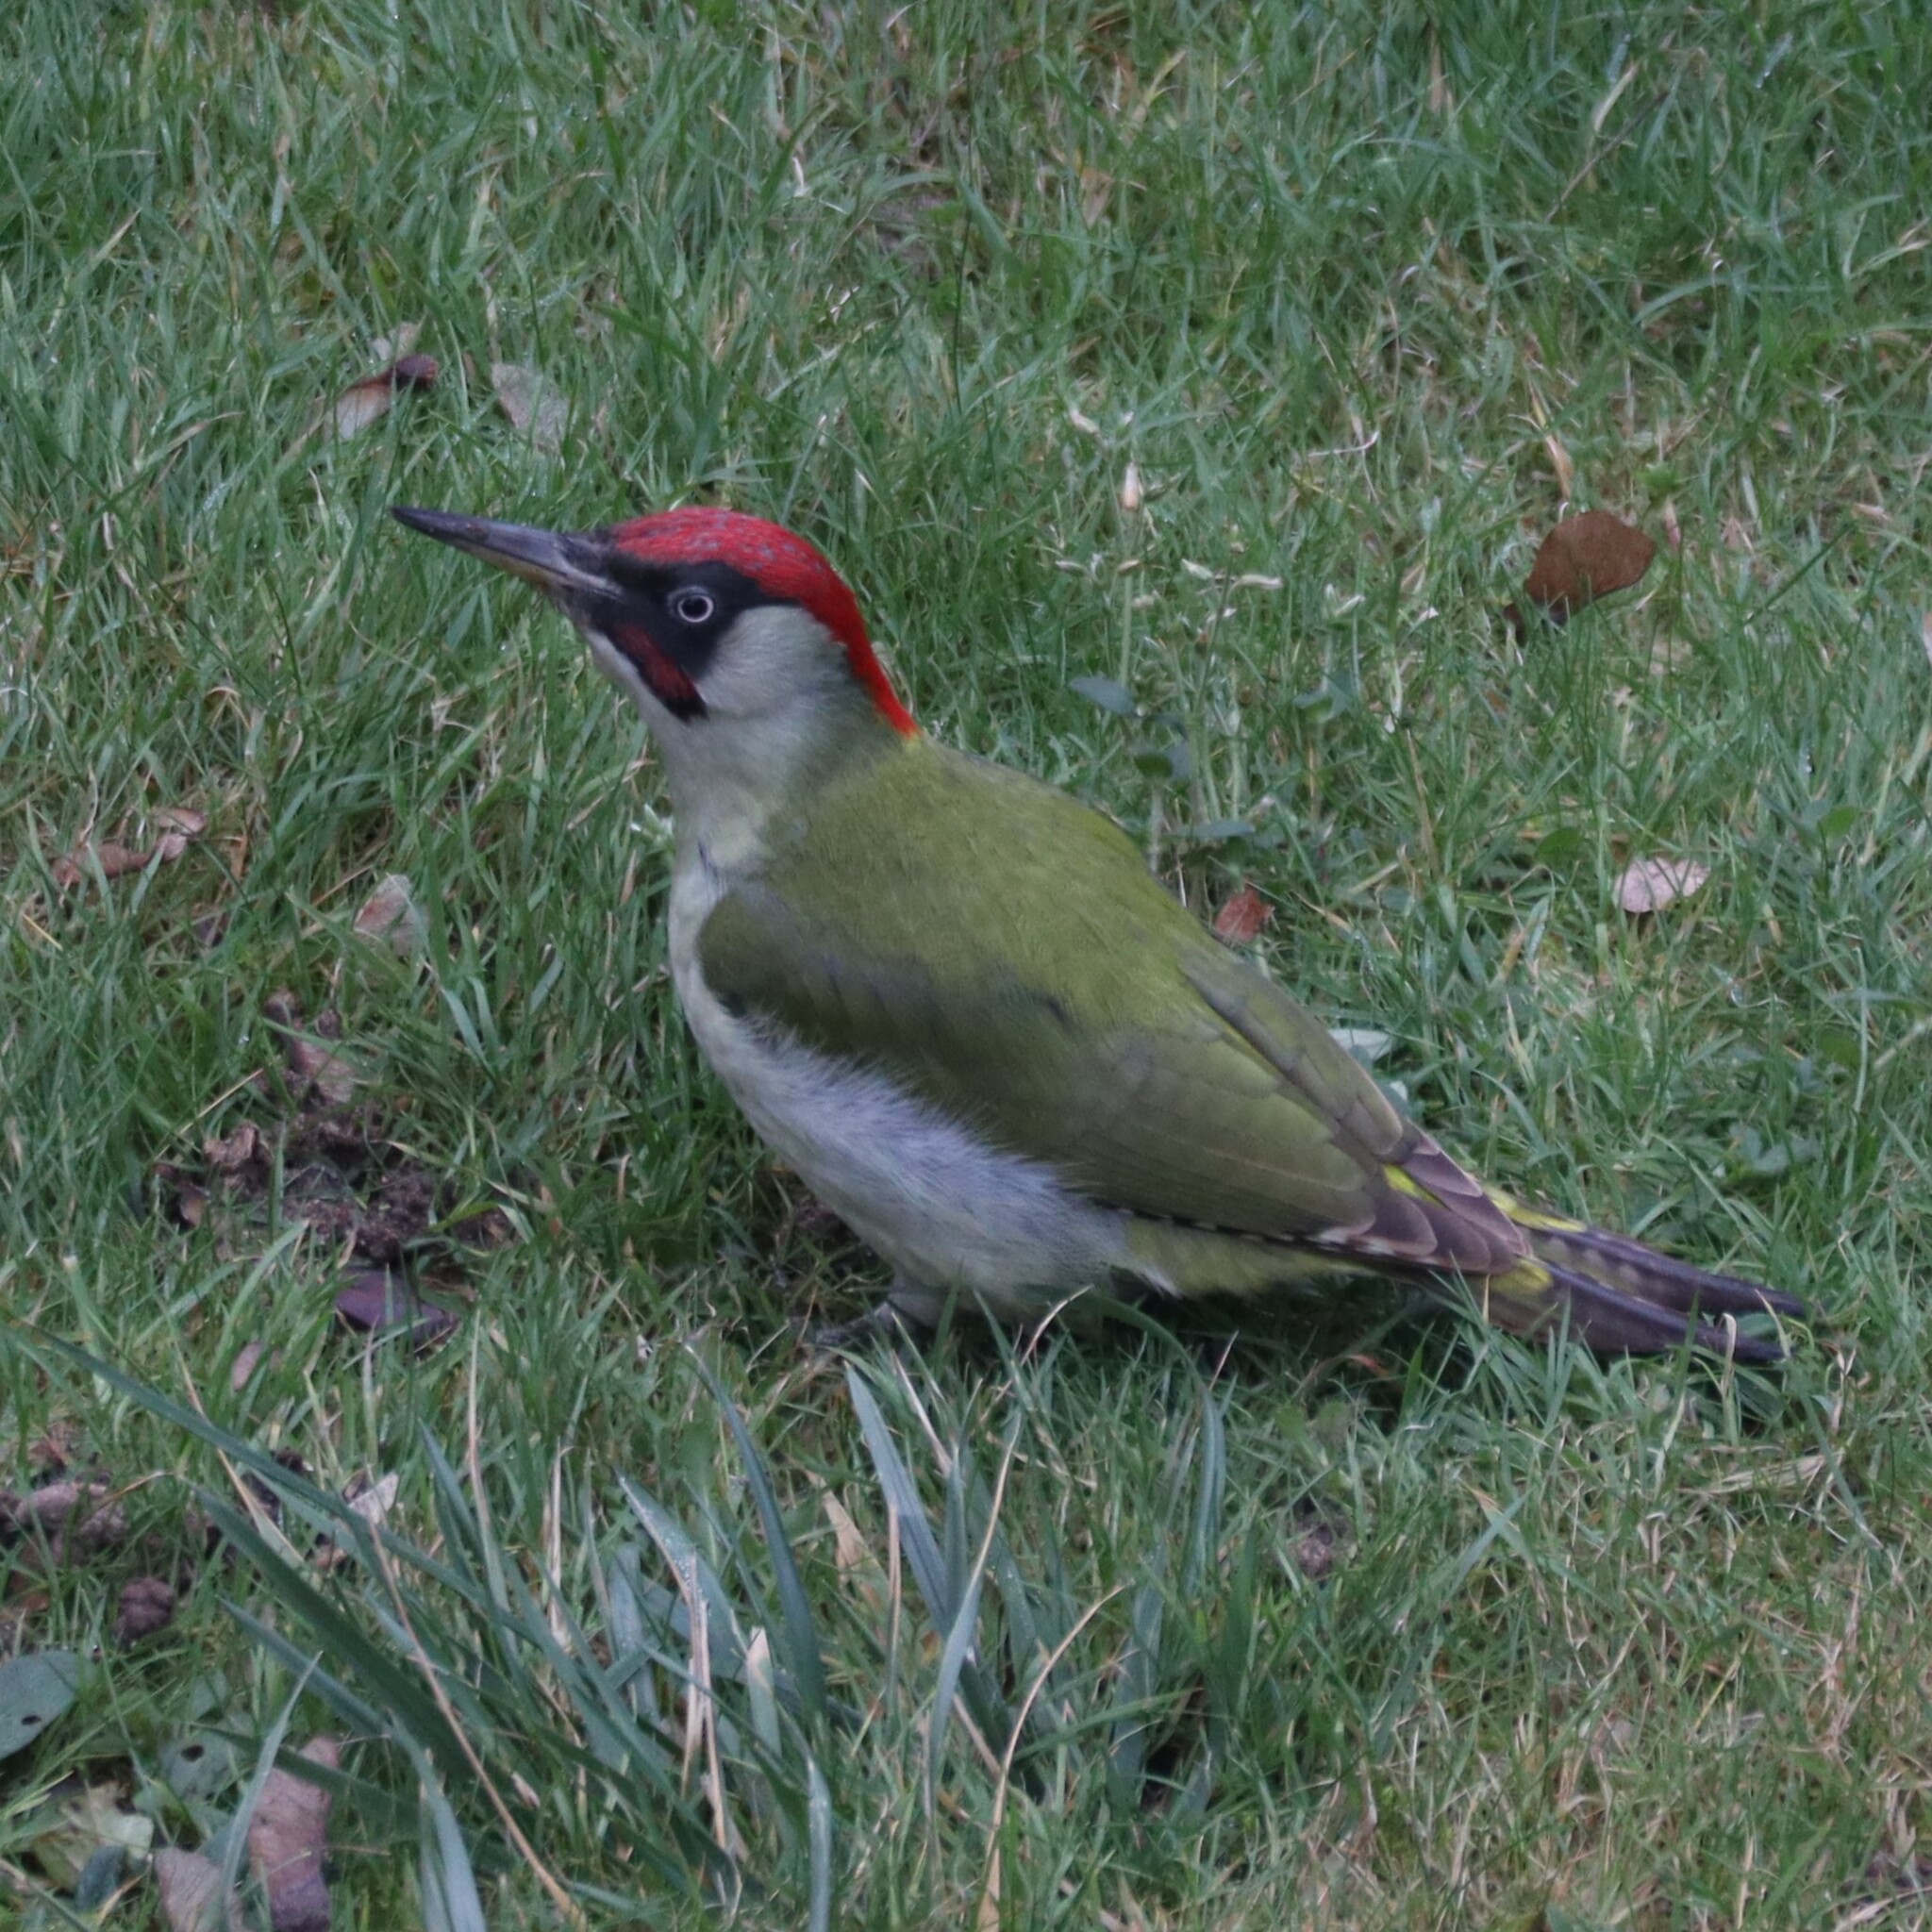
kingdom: Animalia
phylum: Chordata
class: Aves
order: Piciformes
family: Picidae
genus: Picus
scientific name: Picus viridis
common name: European green woodpecker
